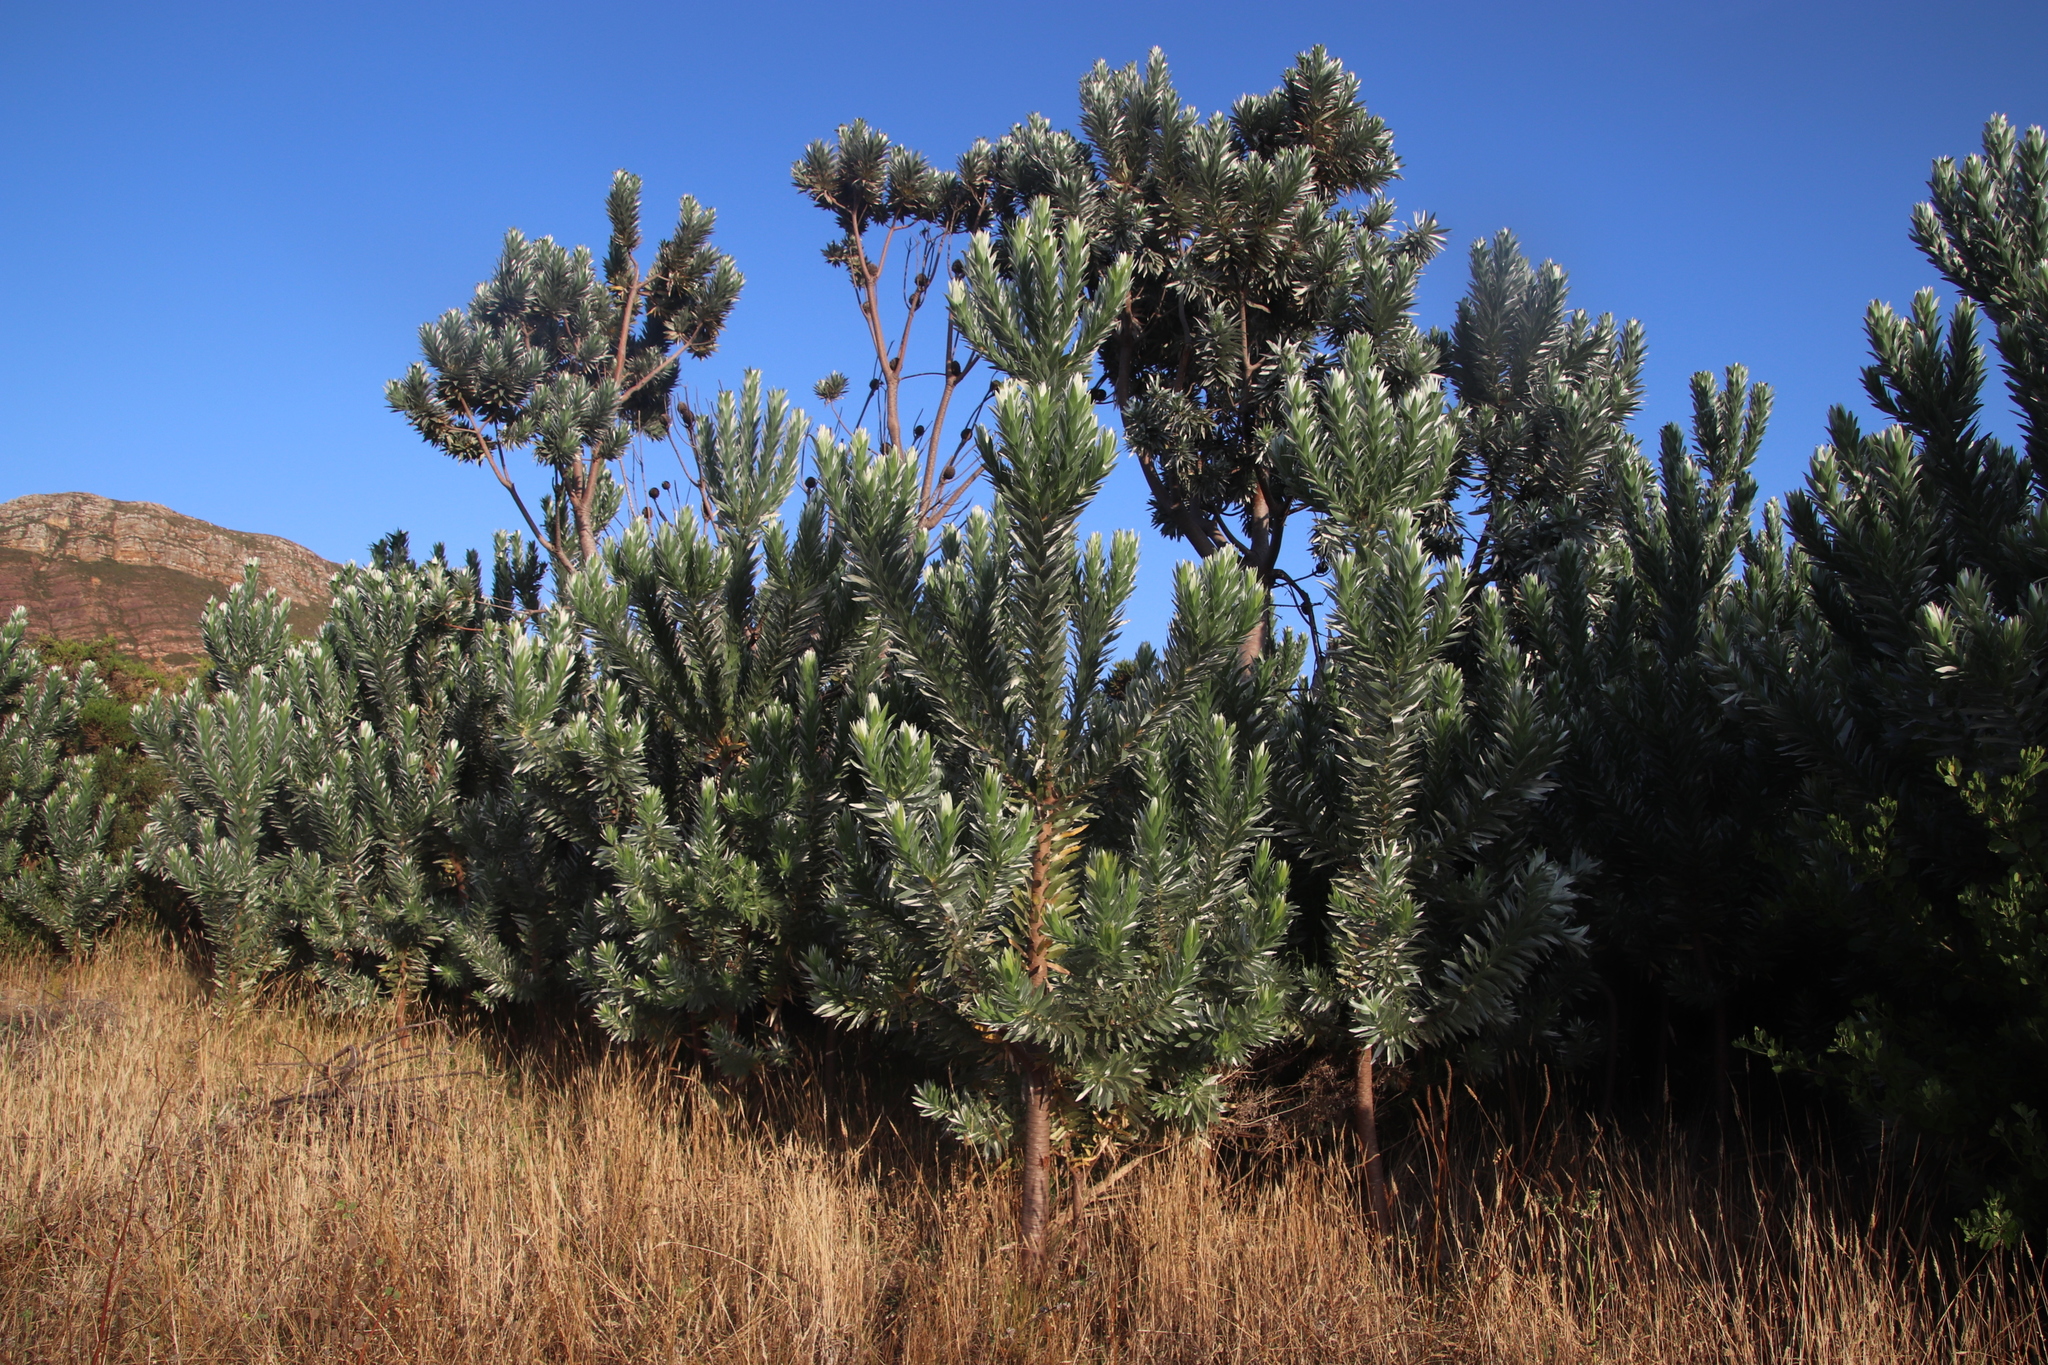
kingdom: Plantae
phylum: Tracheophyta
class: Magnoliopsida
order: Proteales
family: Proteaceae
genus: Leucadendron
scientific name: Leucadendron argenteum
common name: Cape silver tree
